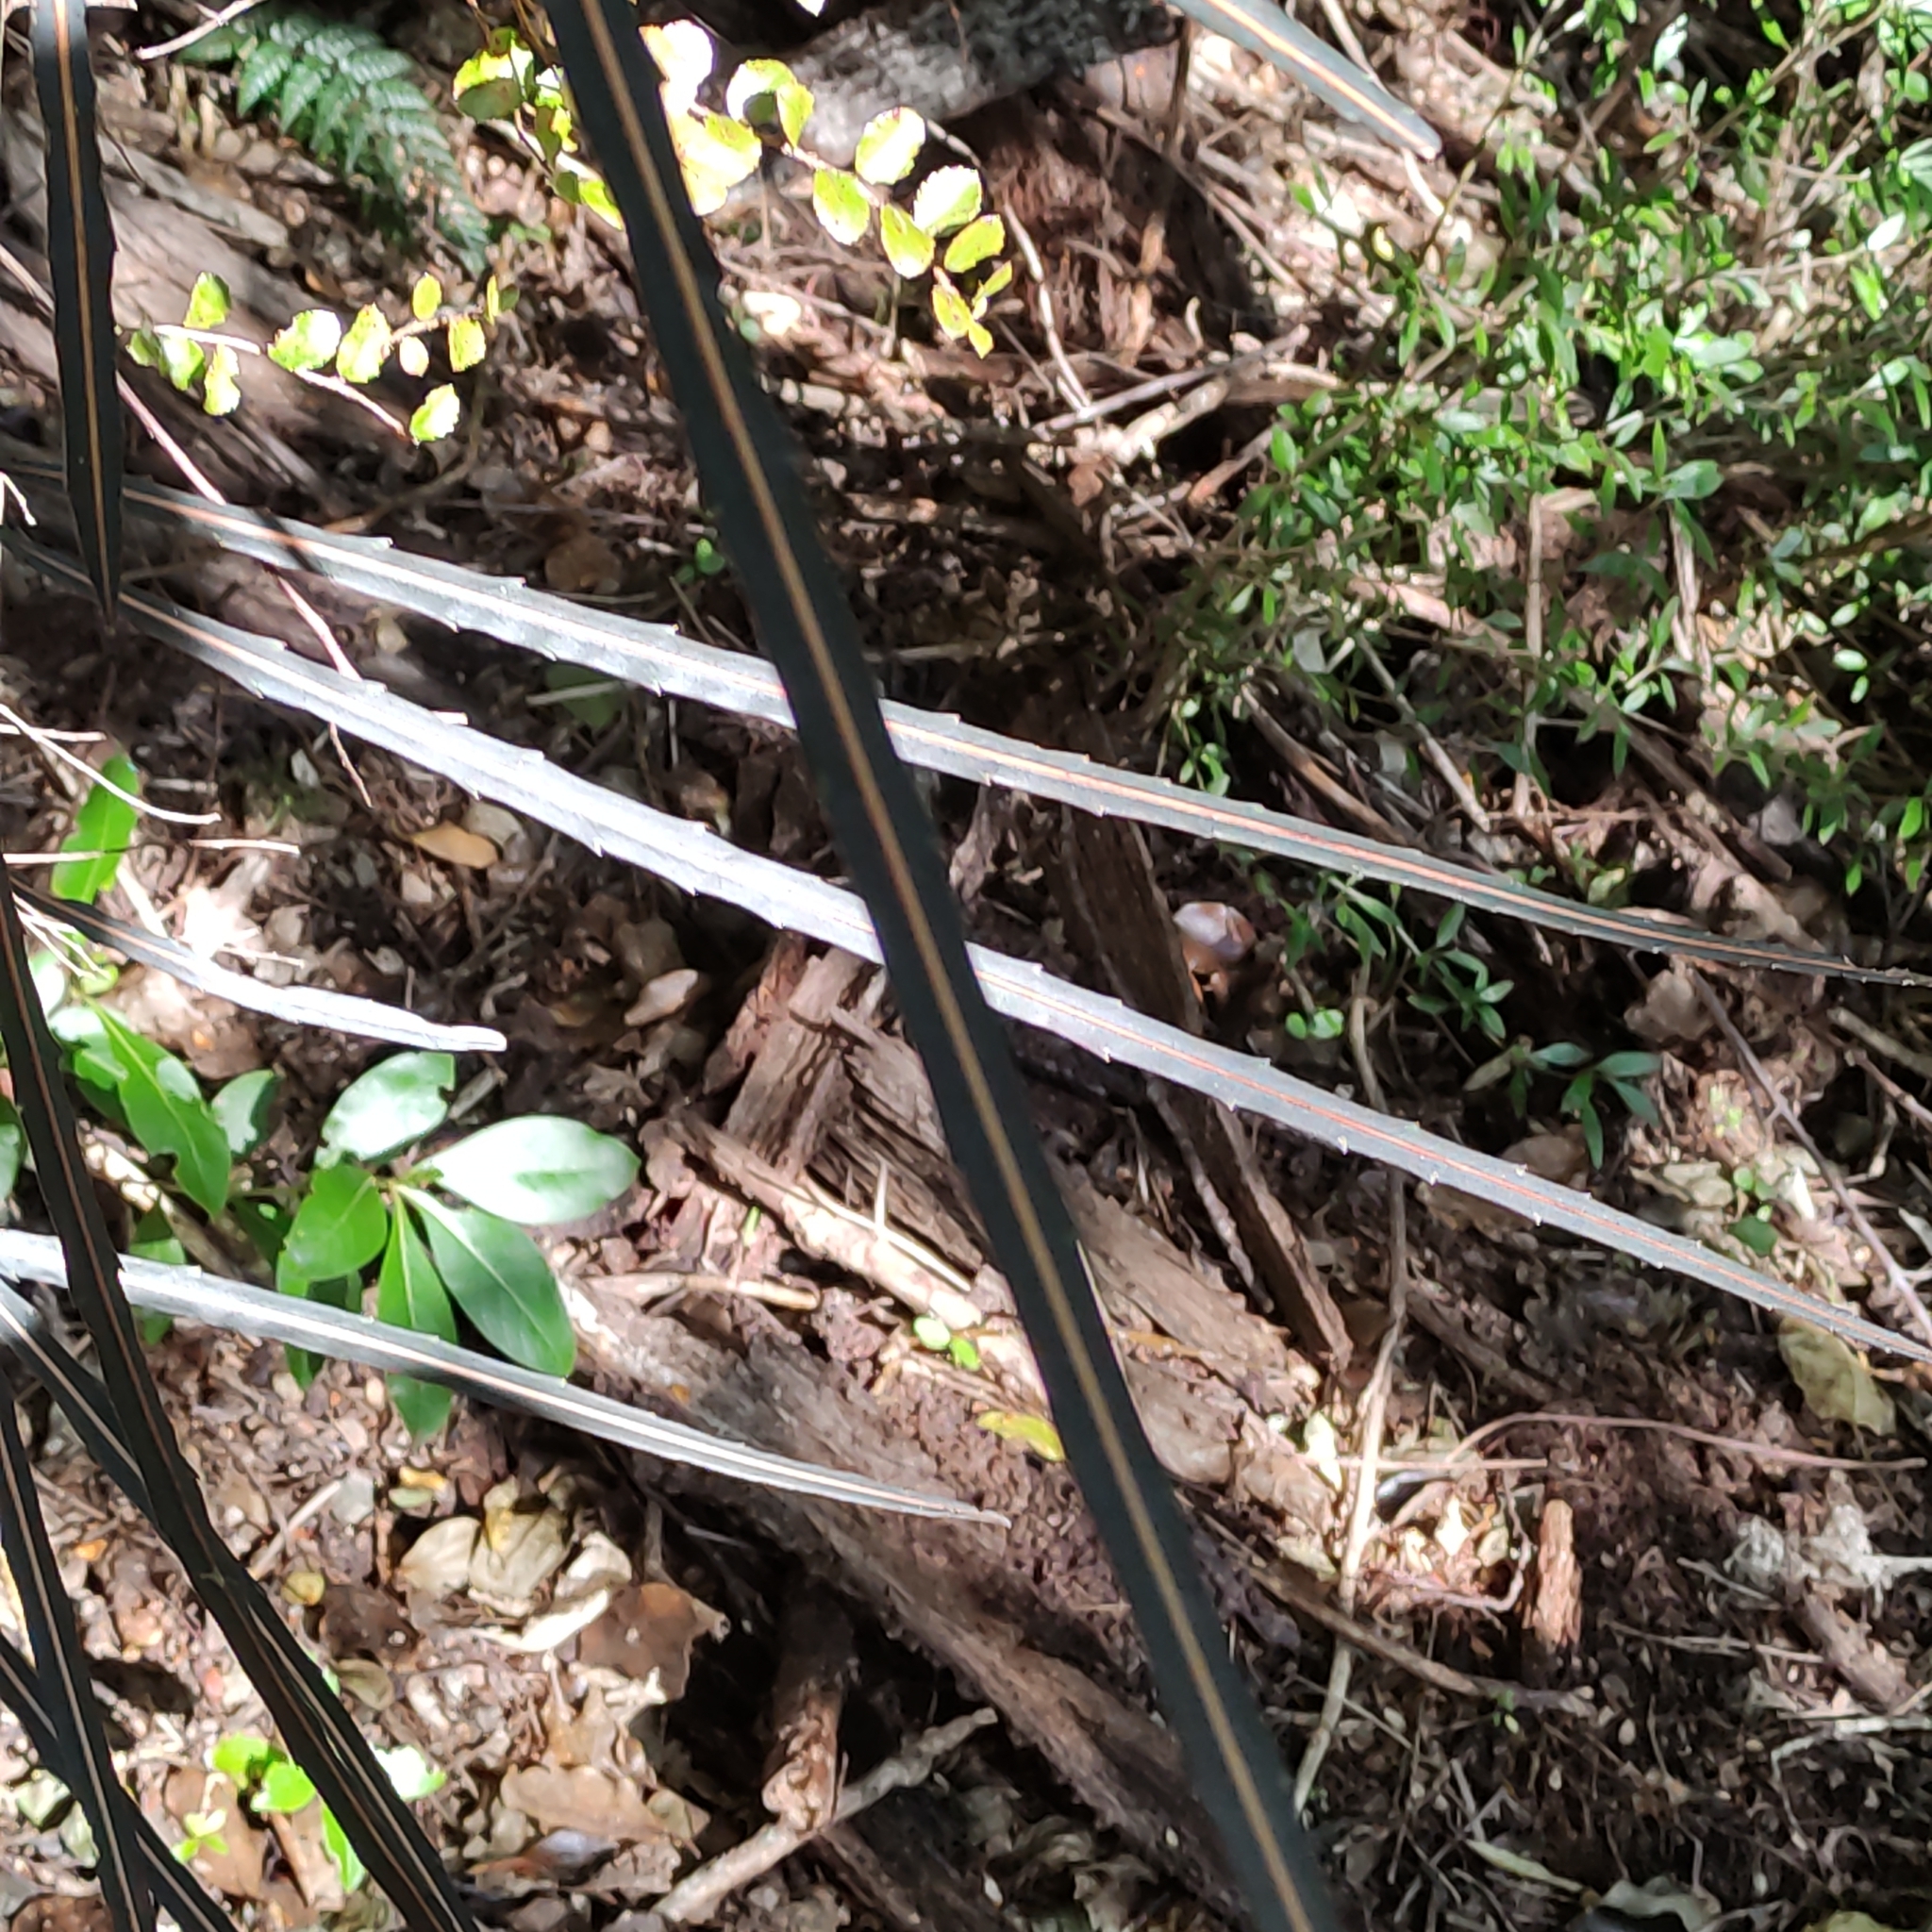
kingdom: Plantae
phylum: Tracheophyta
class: Magnoliopsida
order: Apiales
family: Araliaceae
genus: Pseudopanax
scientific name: Pseudopanax crassifolius
